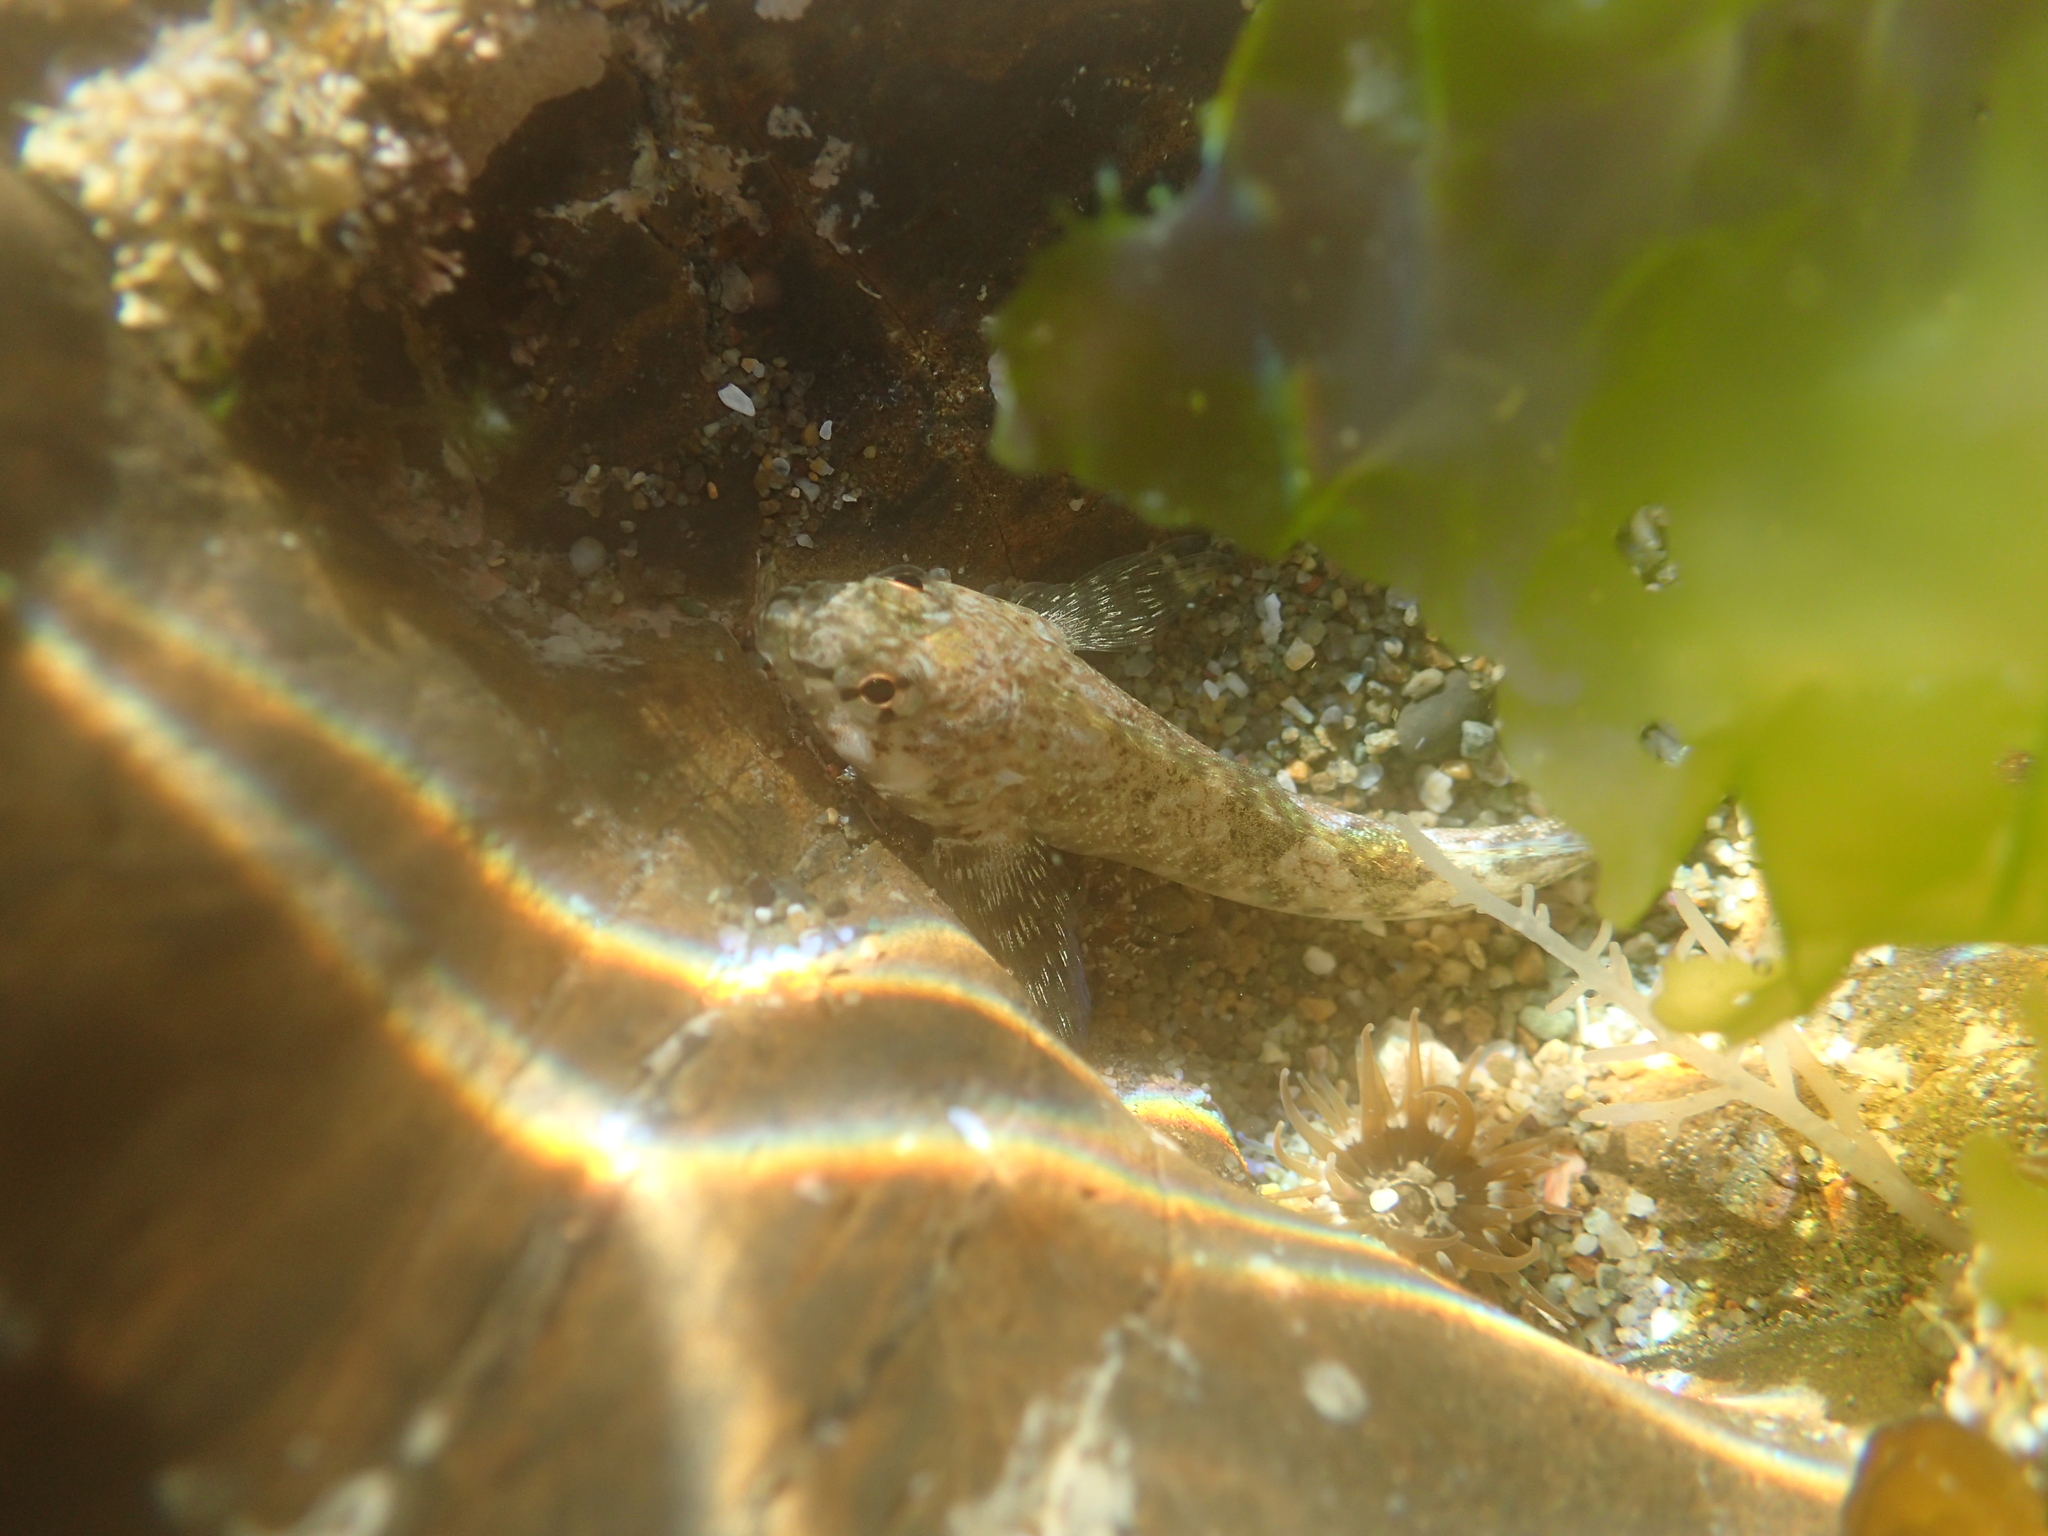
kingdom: Animalia
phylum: Chordata
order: Perciformes
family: Tripterygiidae
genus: Bellapiscis
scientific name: Bellapiscis medius
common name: Twister
